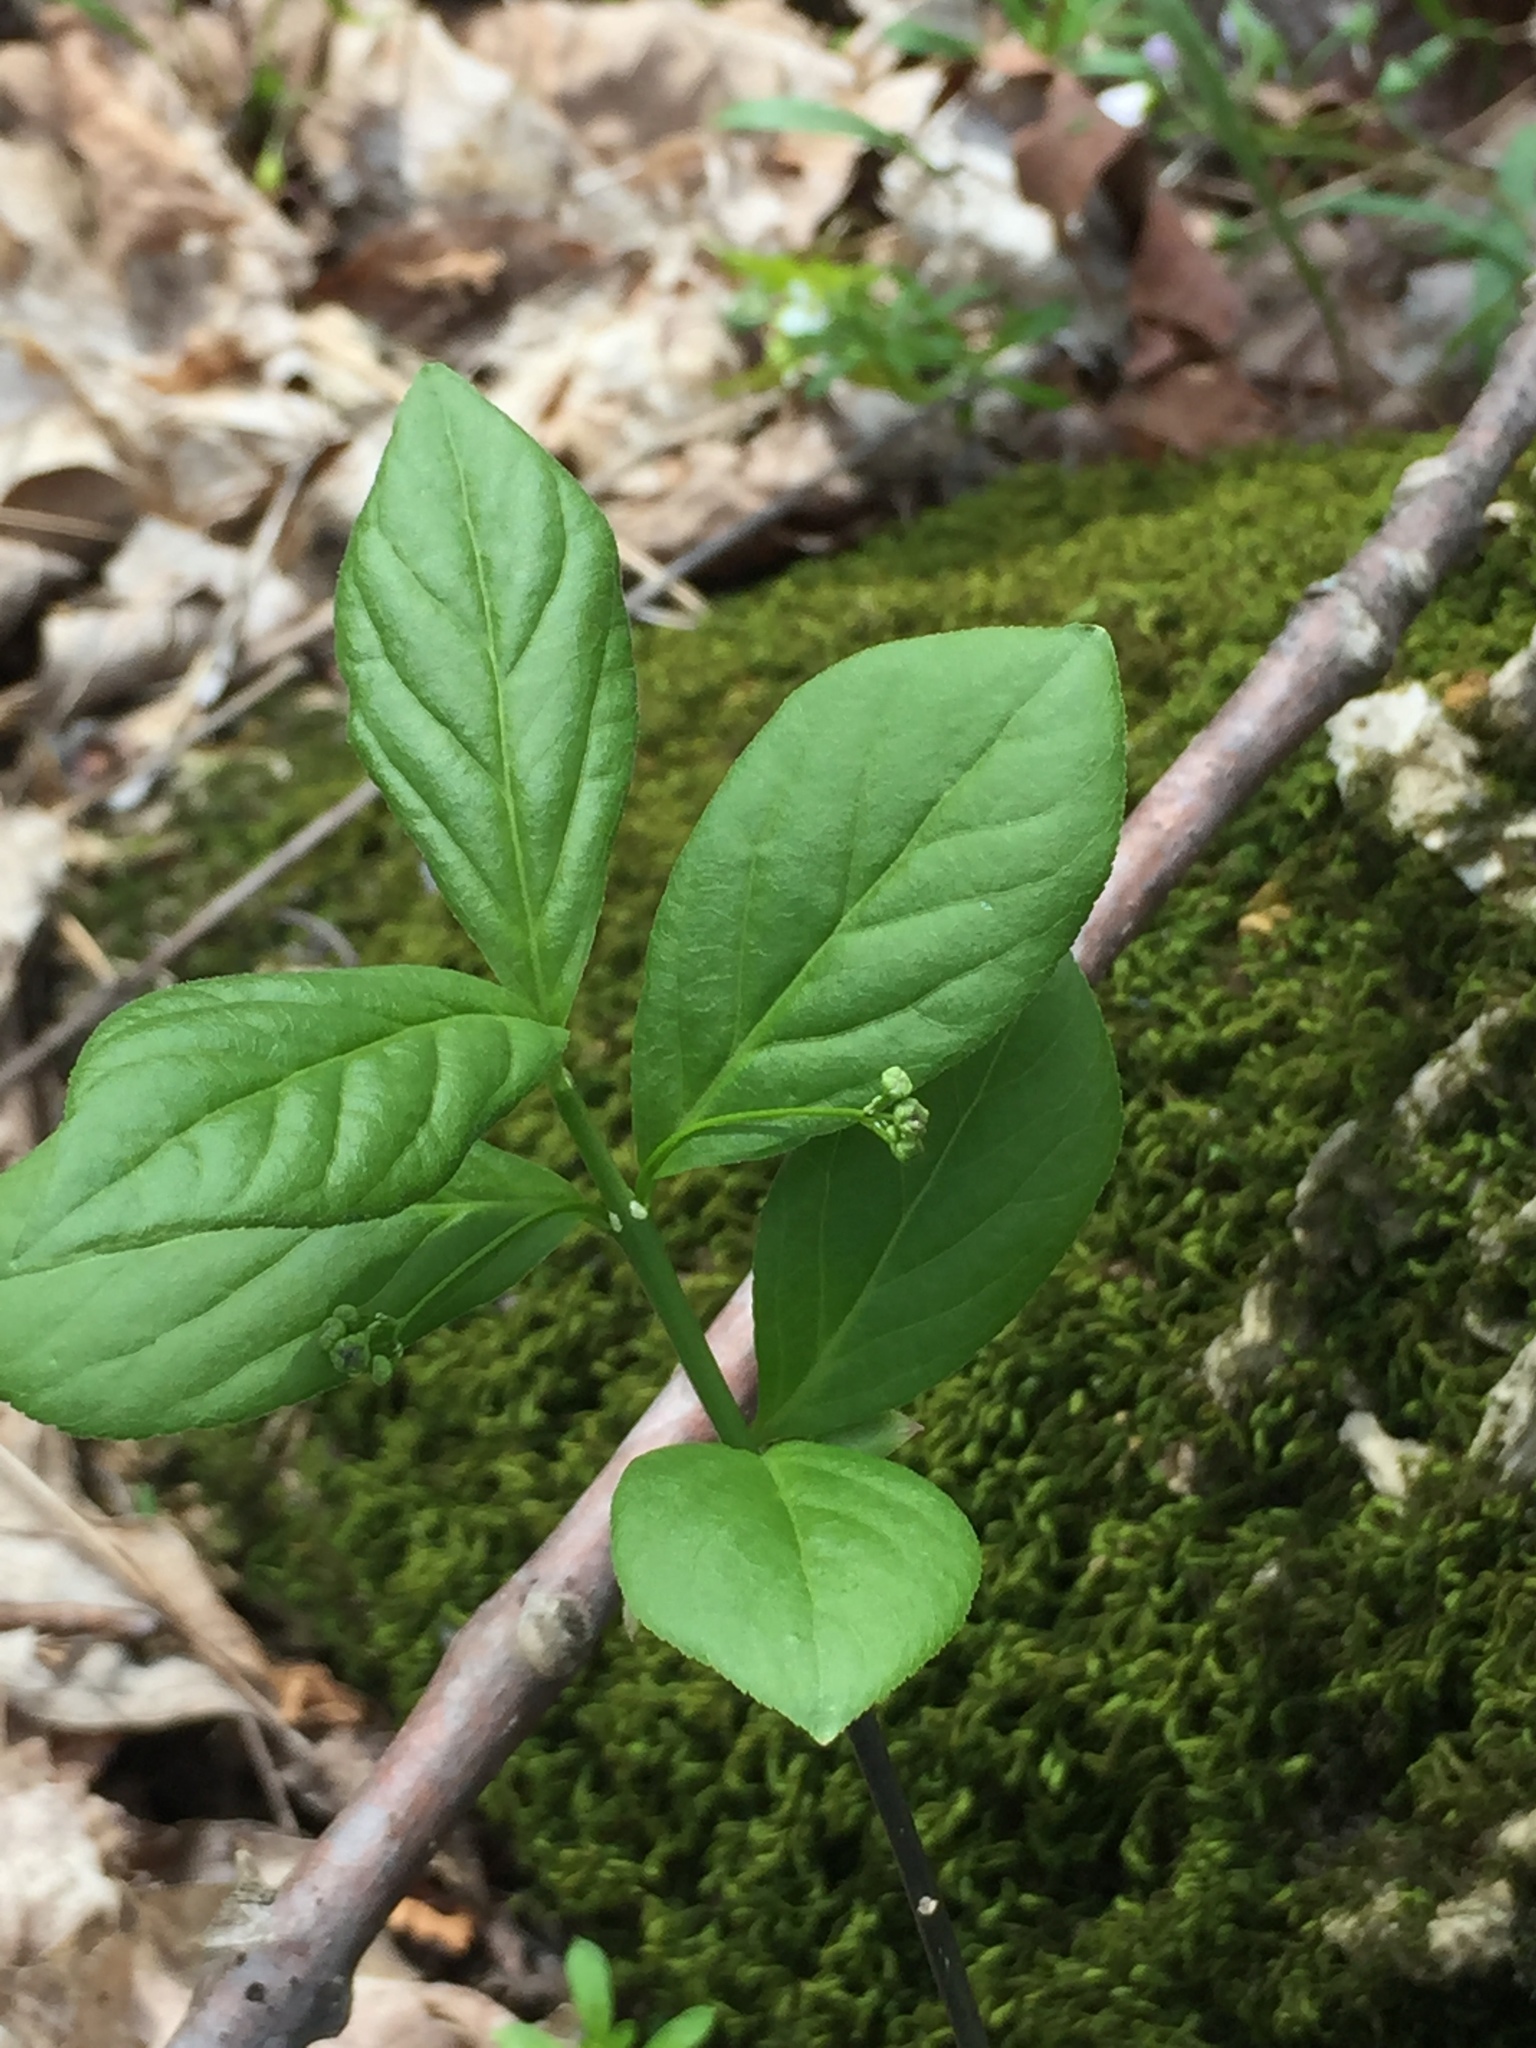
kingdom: Plantae
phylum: Tracheophyta
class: Magnoliopsida
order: Celastrales
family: Celastraceae
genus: Euonymus
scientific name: Euonymus obovatus
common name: Running strawberry-bush
